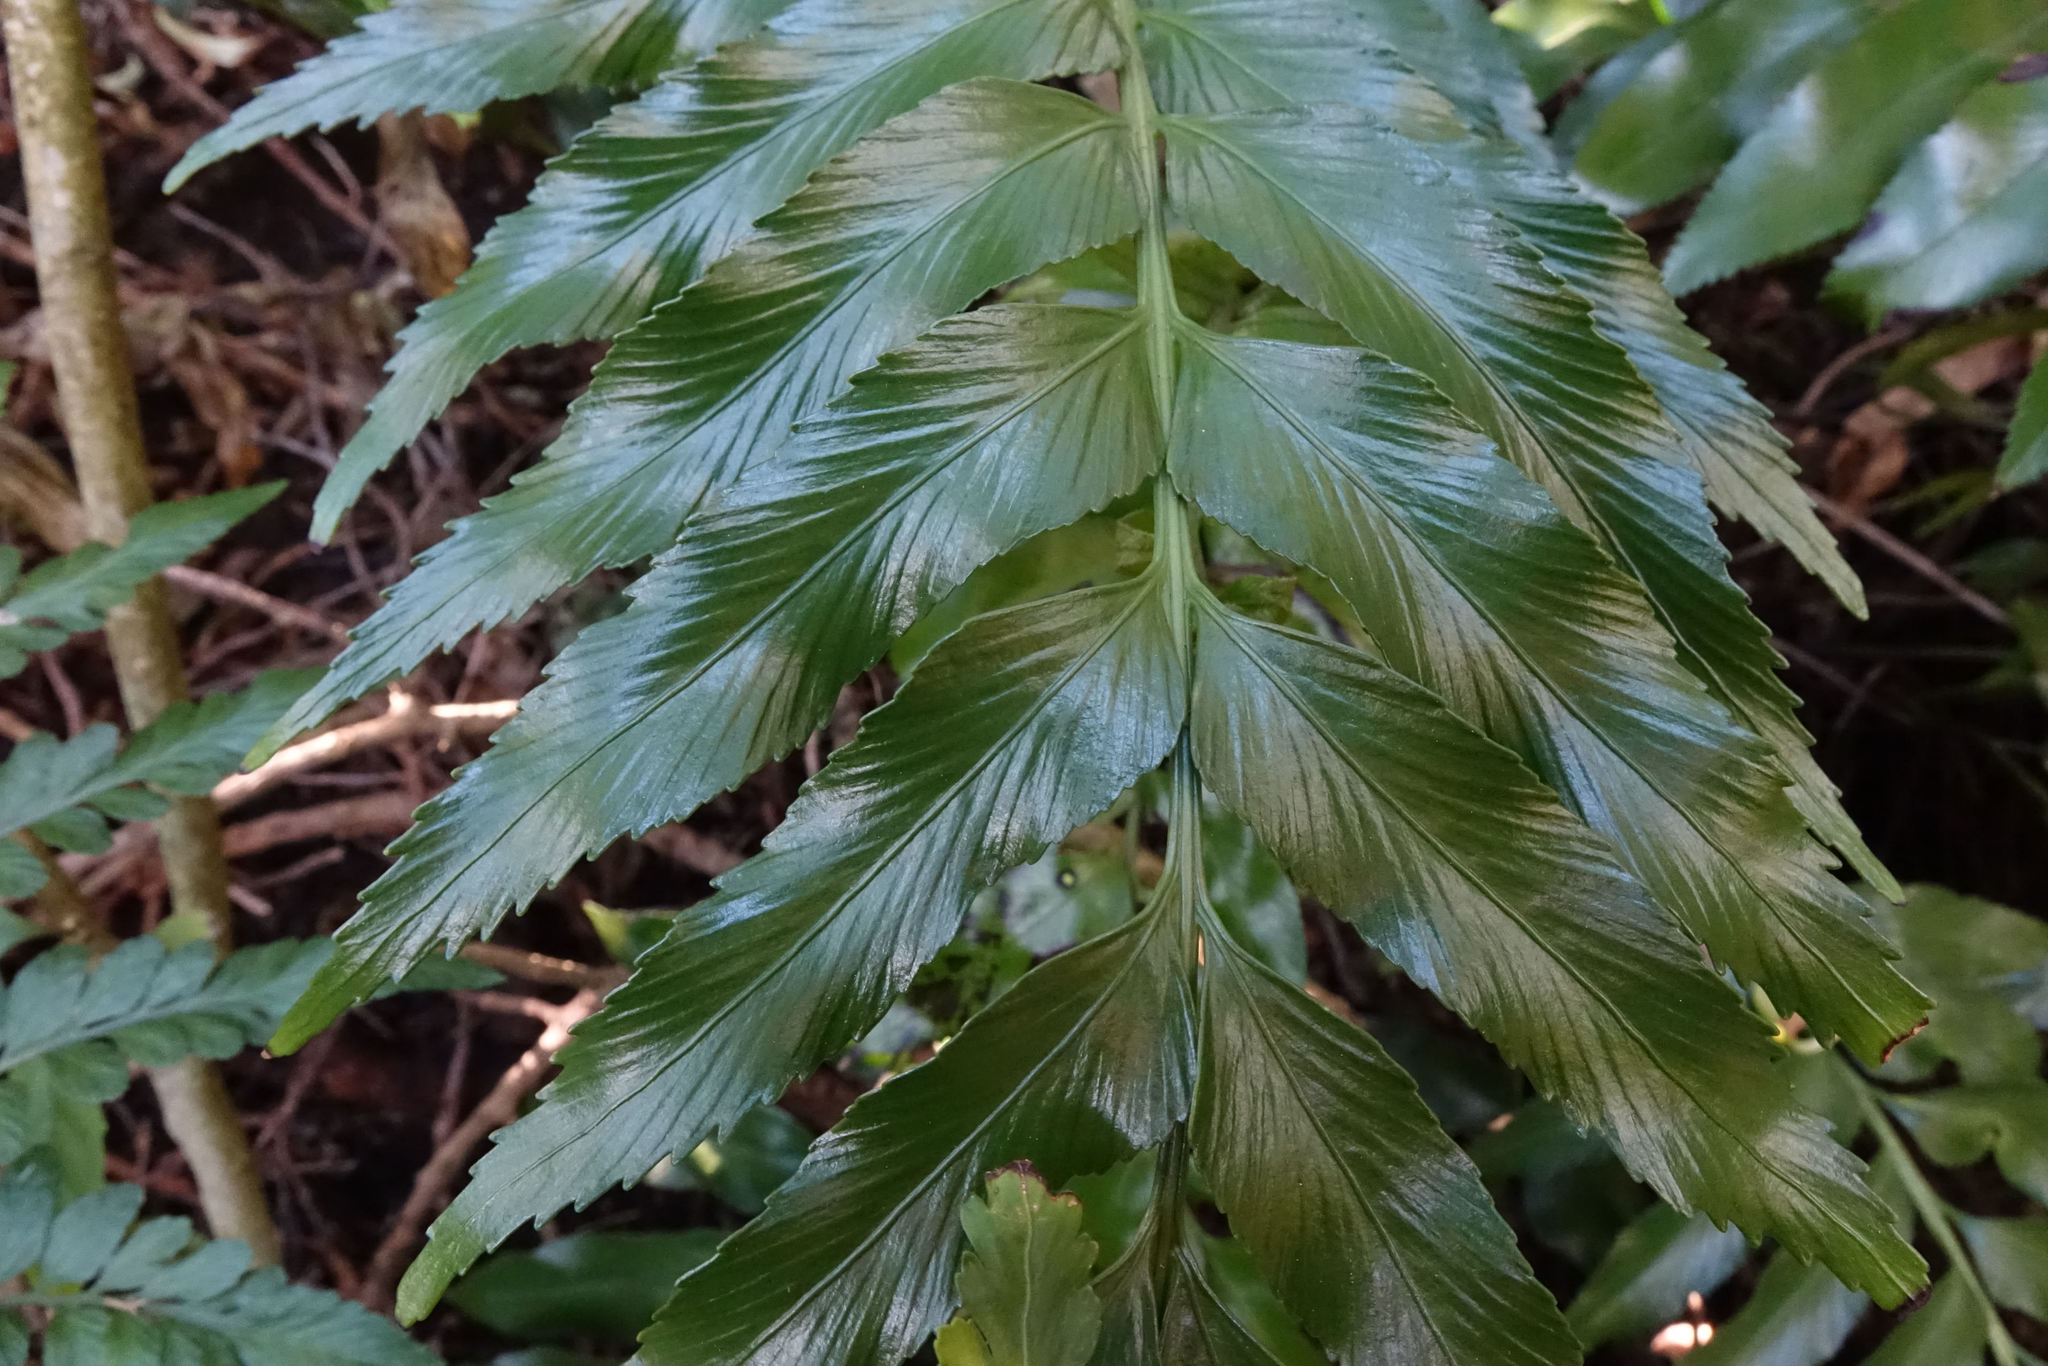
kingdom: Plantae
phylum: Tracheophyta
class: Polypodiopsida
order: Polypodiales
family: Aspleniaceae
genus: Asplenium
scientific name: Asplenium obtusatum
